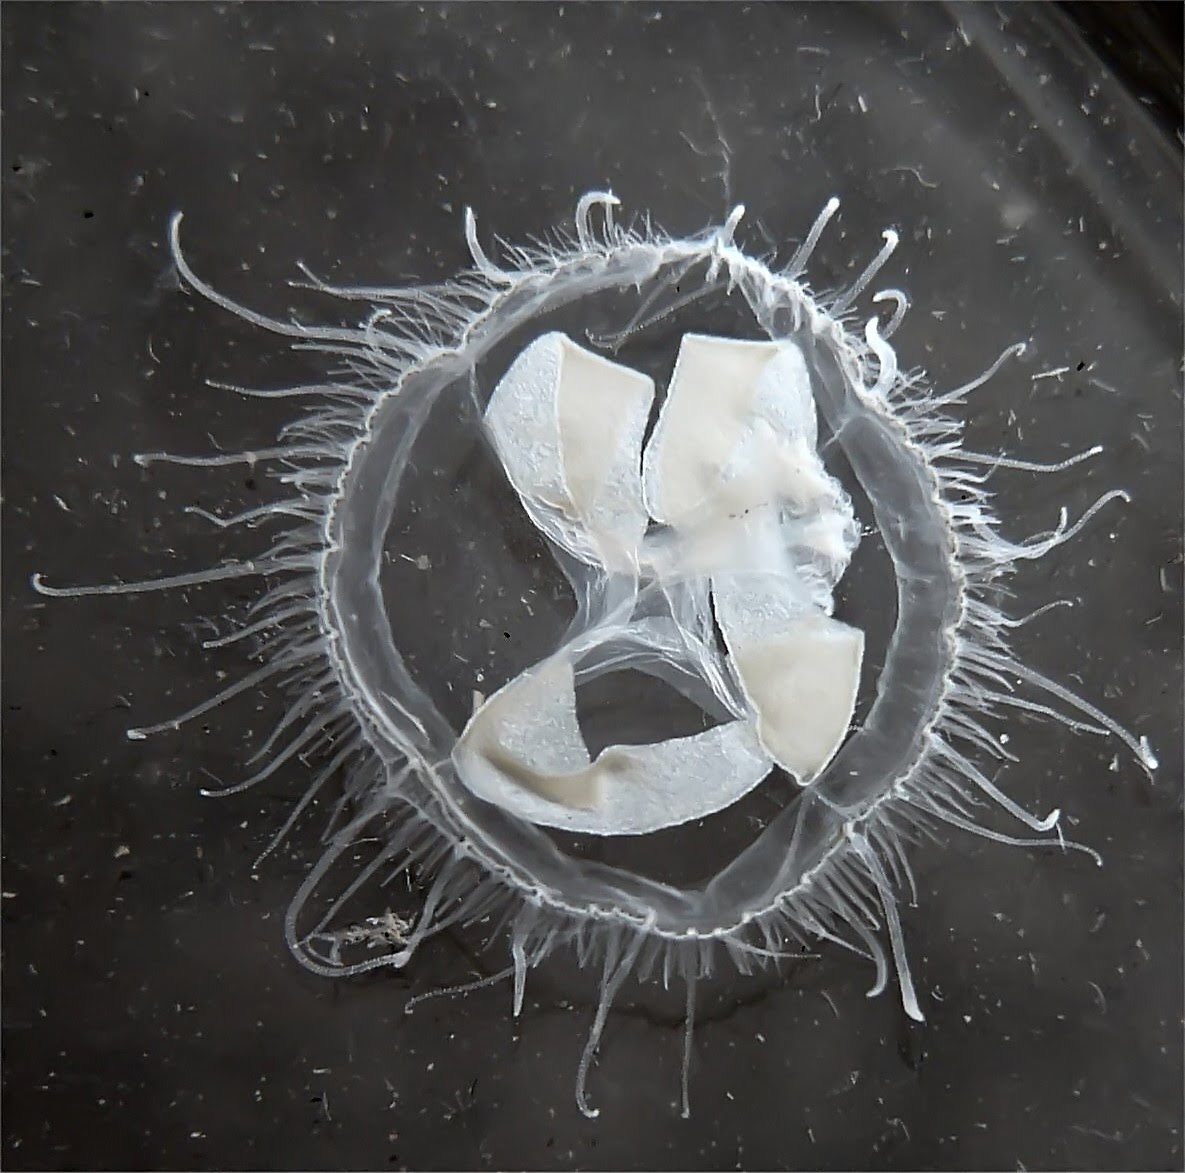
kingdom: Animalia
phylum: Cnidaria
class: Hydrozoa
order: Limnomedusae
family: Olindiidae
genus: Craspedacusta
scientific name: Craspedacusta sowerbii
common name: Freshwater jellyfish
